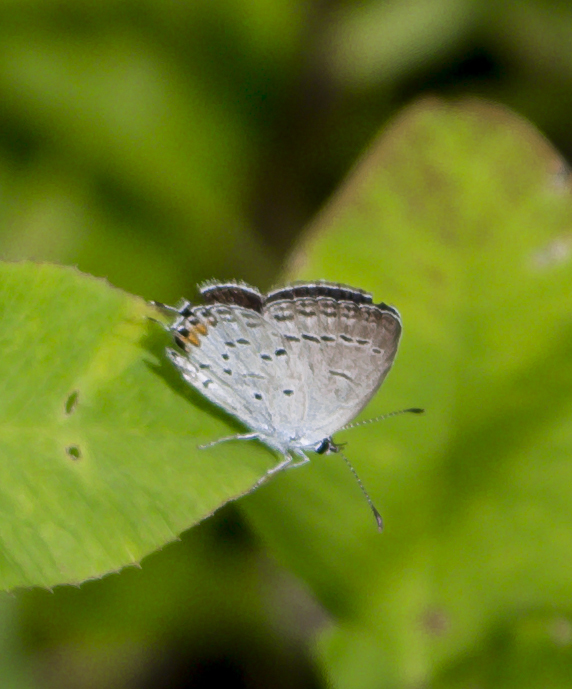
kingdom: Animalia
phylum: Arthropoda
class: Insecta
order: Lepidoptera
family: Lycaenidae
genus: Elkalyce
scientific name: Elkalyce comyntas
